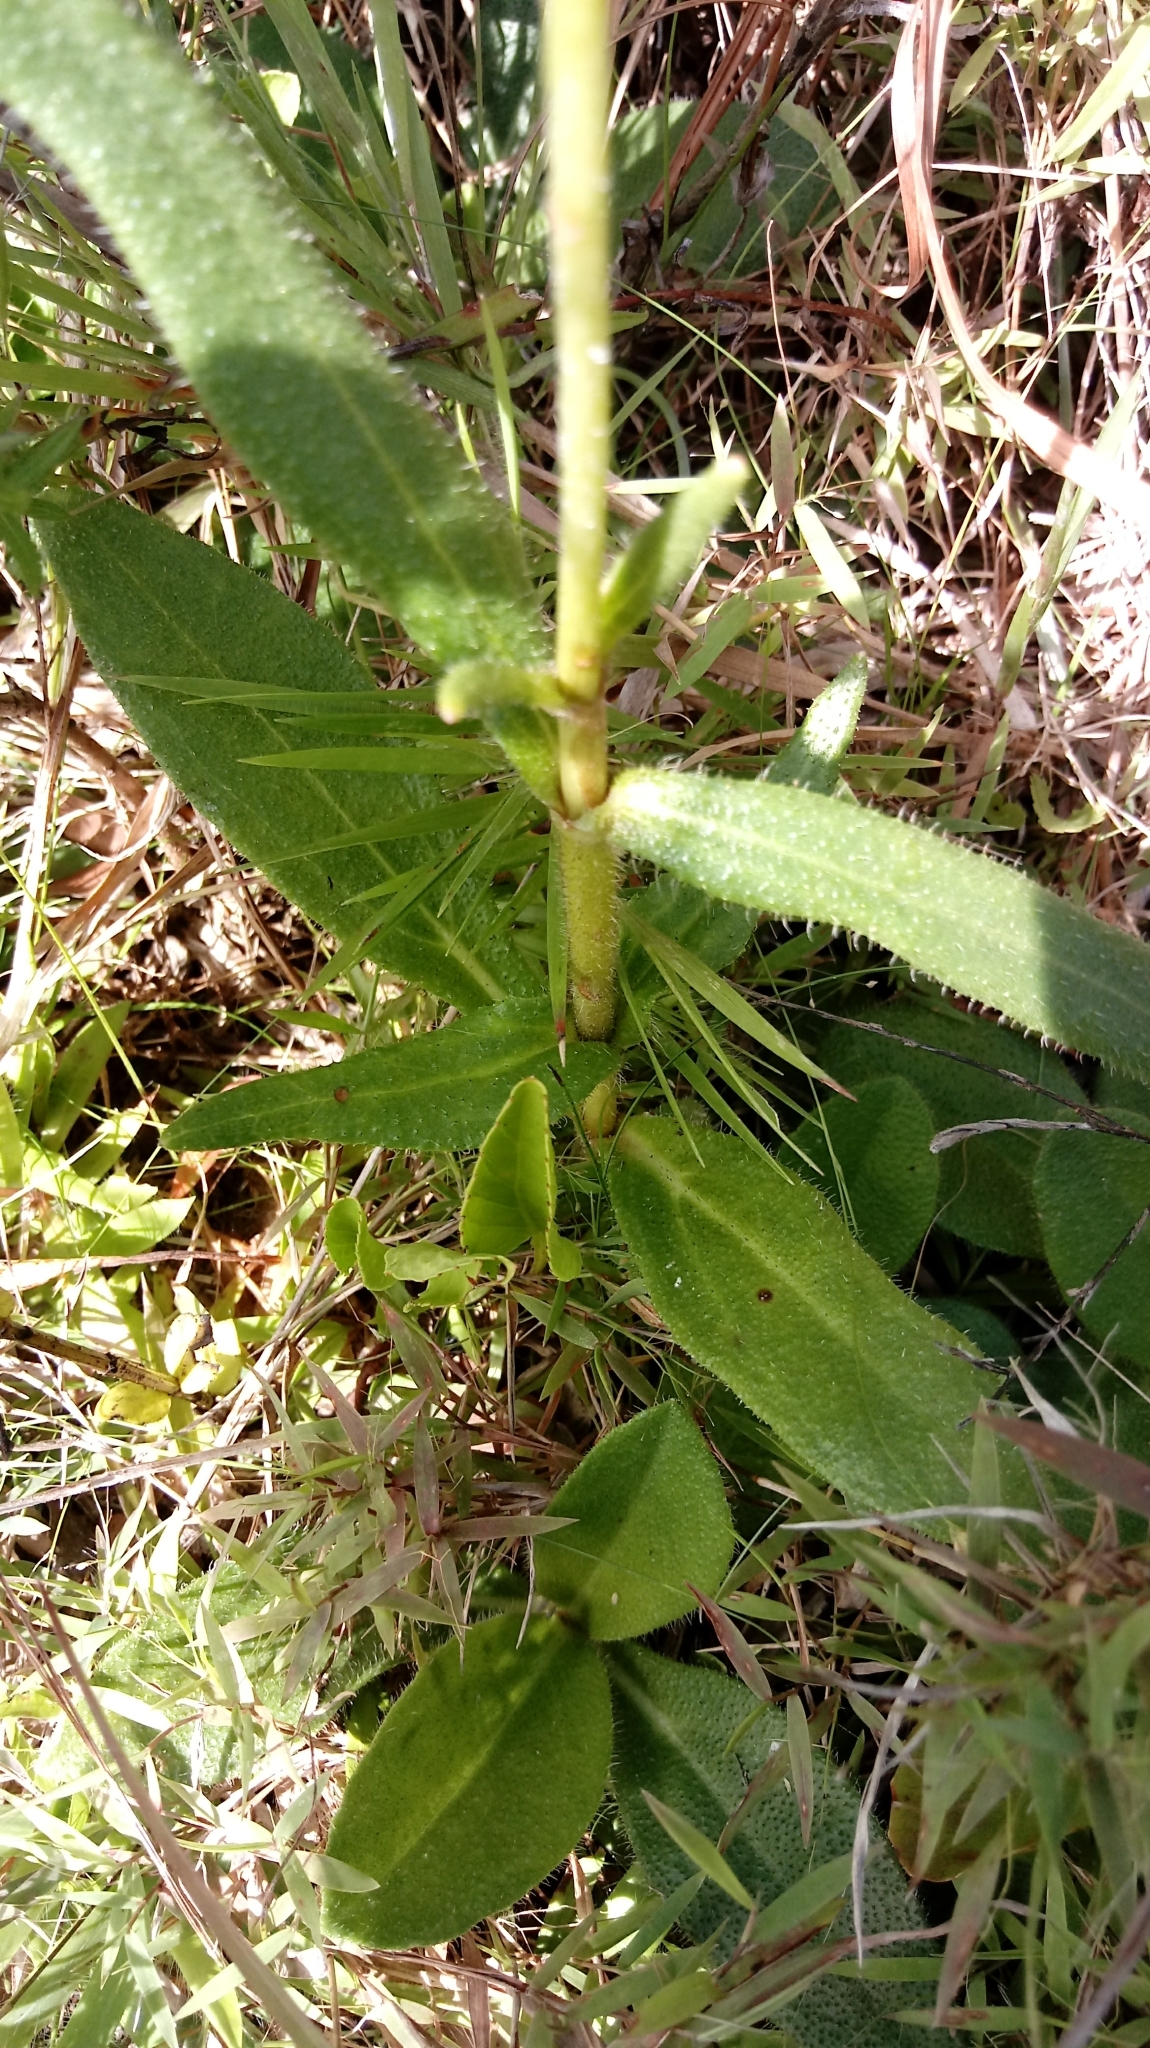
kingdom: Plantae
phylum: Tracheophyta
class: Magnoliopsida
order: Asterales
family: Asteraceae
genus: Helianthus
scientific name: Helianthus heterophyllus
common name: Wetland sunflower
